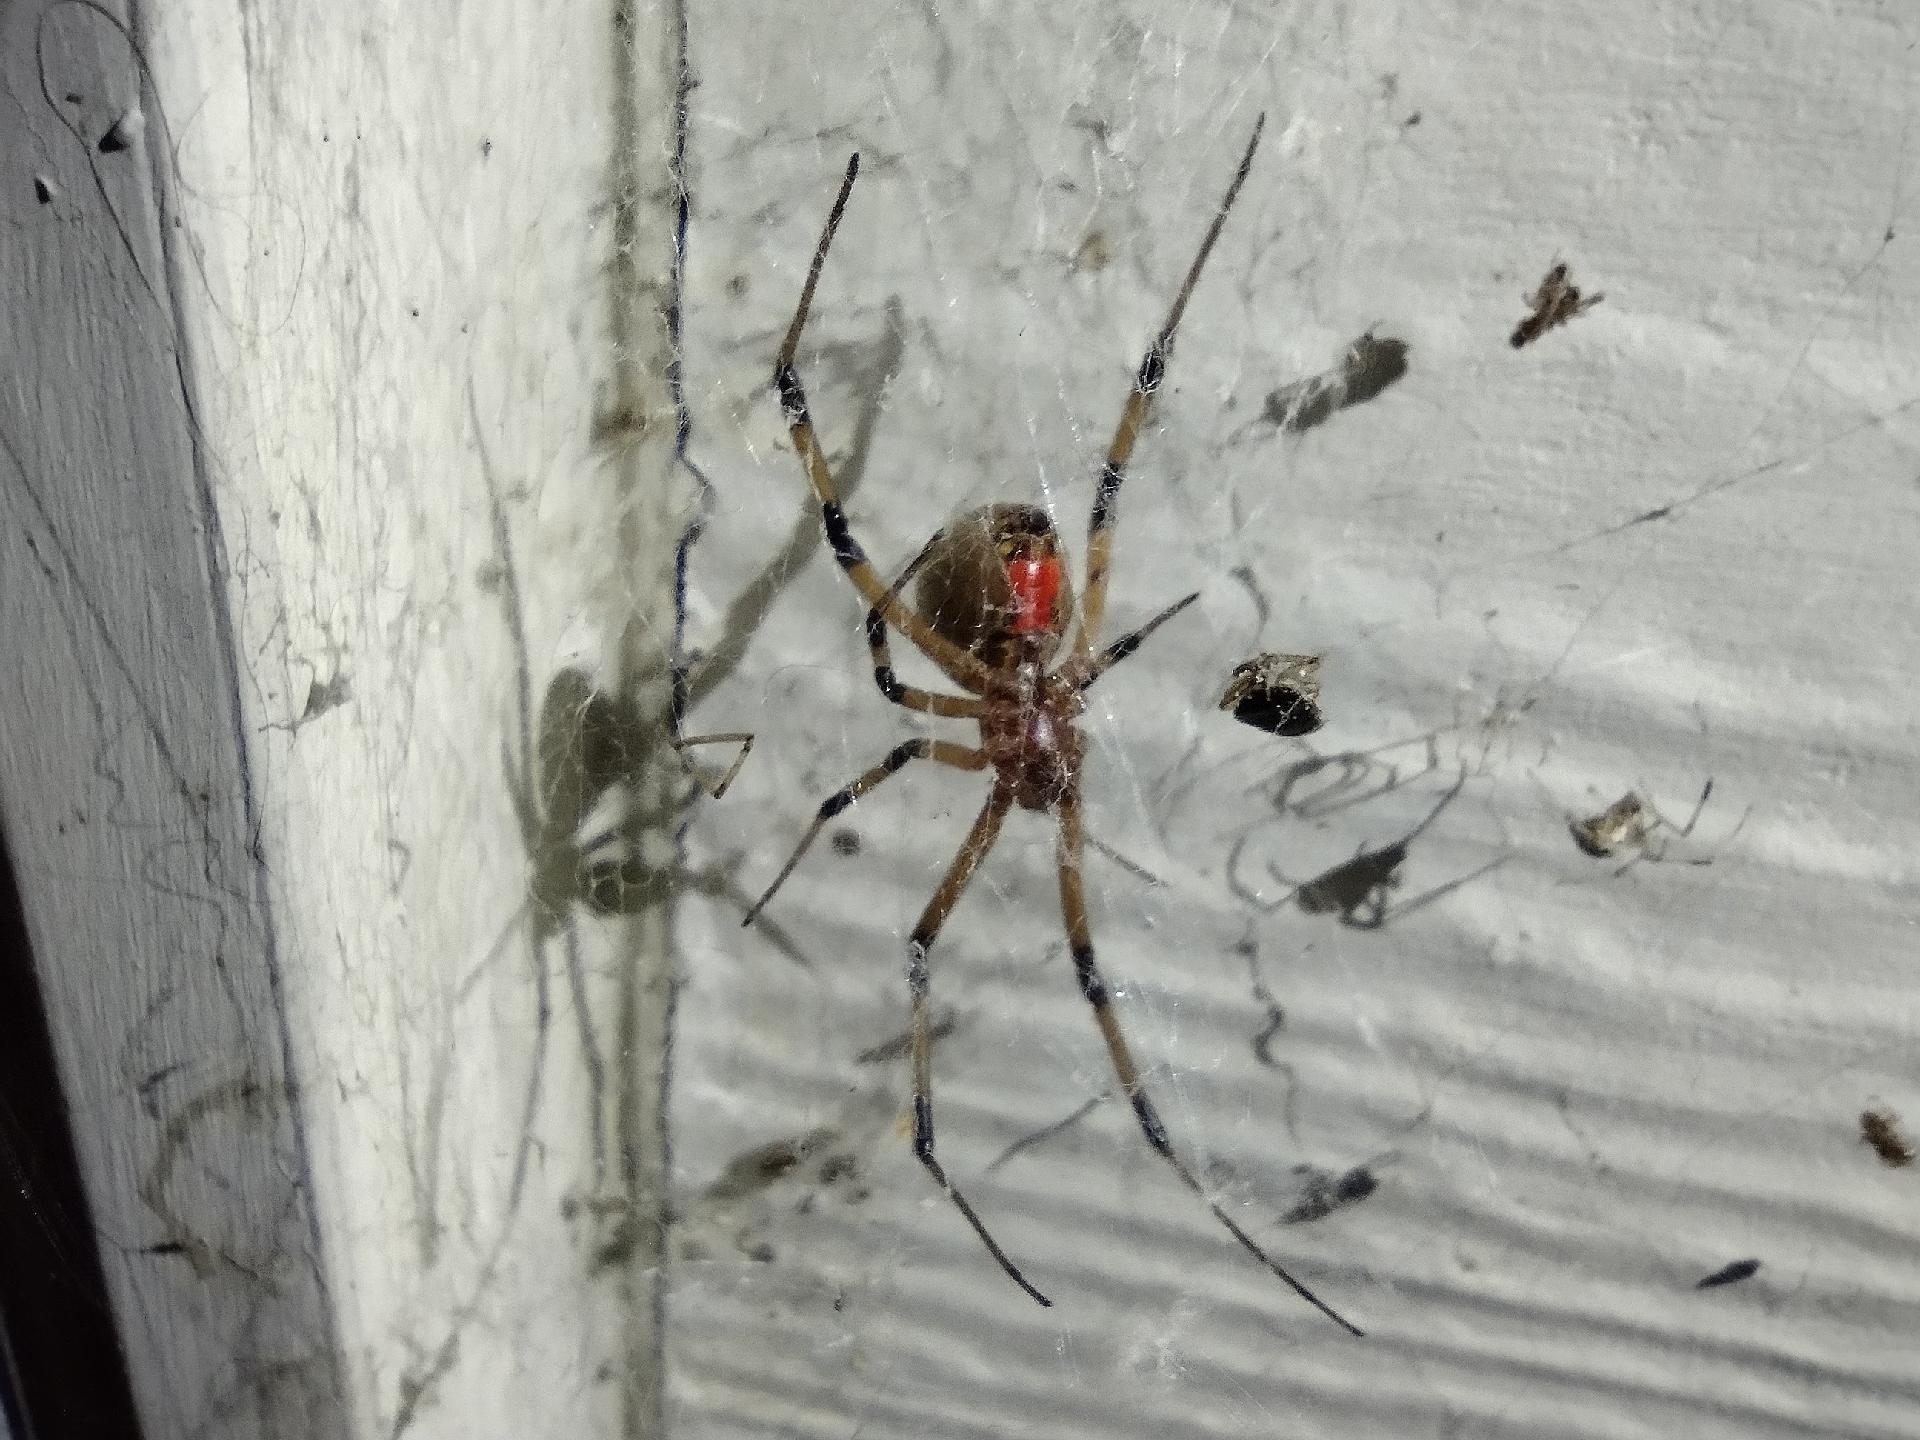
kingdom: Animalia
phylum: Arthropoda
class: Arachnida
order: Araneae
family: Theridiidae
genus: Latrodectus
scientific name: Latrodectus geometricus
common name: Brown widow spider
